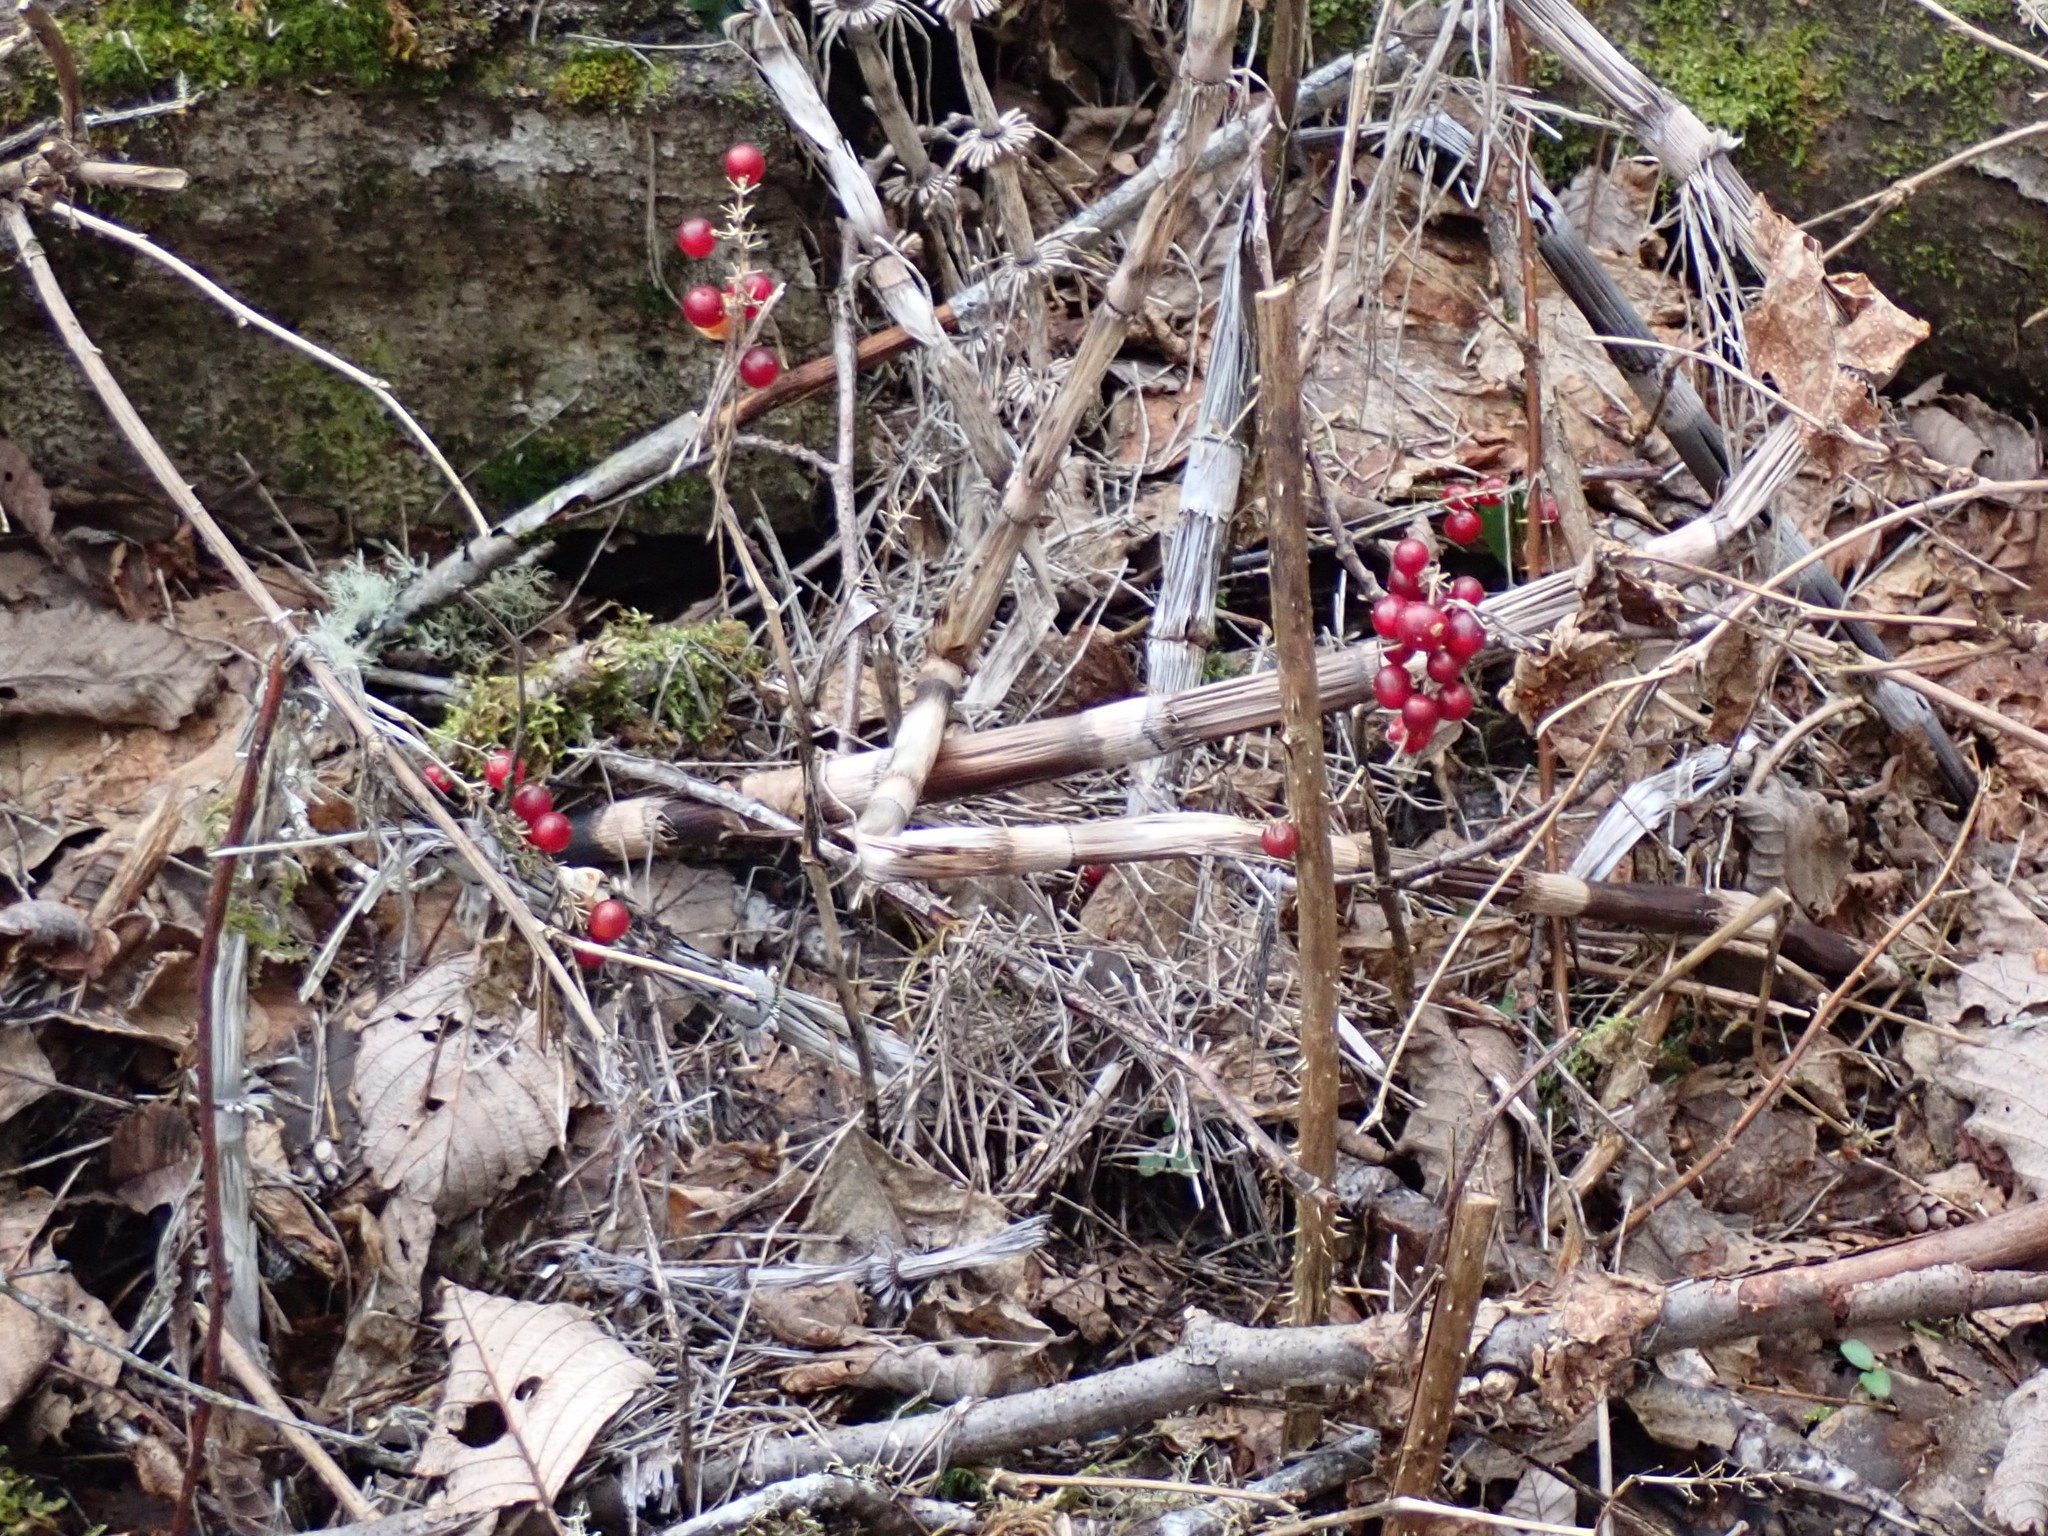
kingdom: Plantae
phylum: Tracheophyta
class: Liliopsida
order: Asparagales
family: Asparagaceae
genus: Maianthemum
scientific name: Maianthemum dilatatum
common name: False lily-of-the-valley
